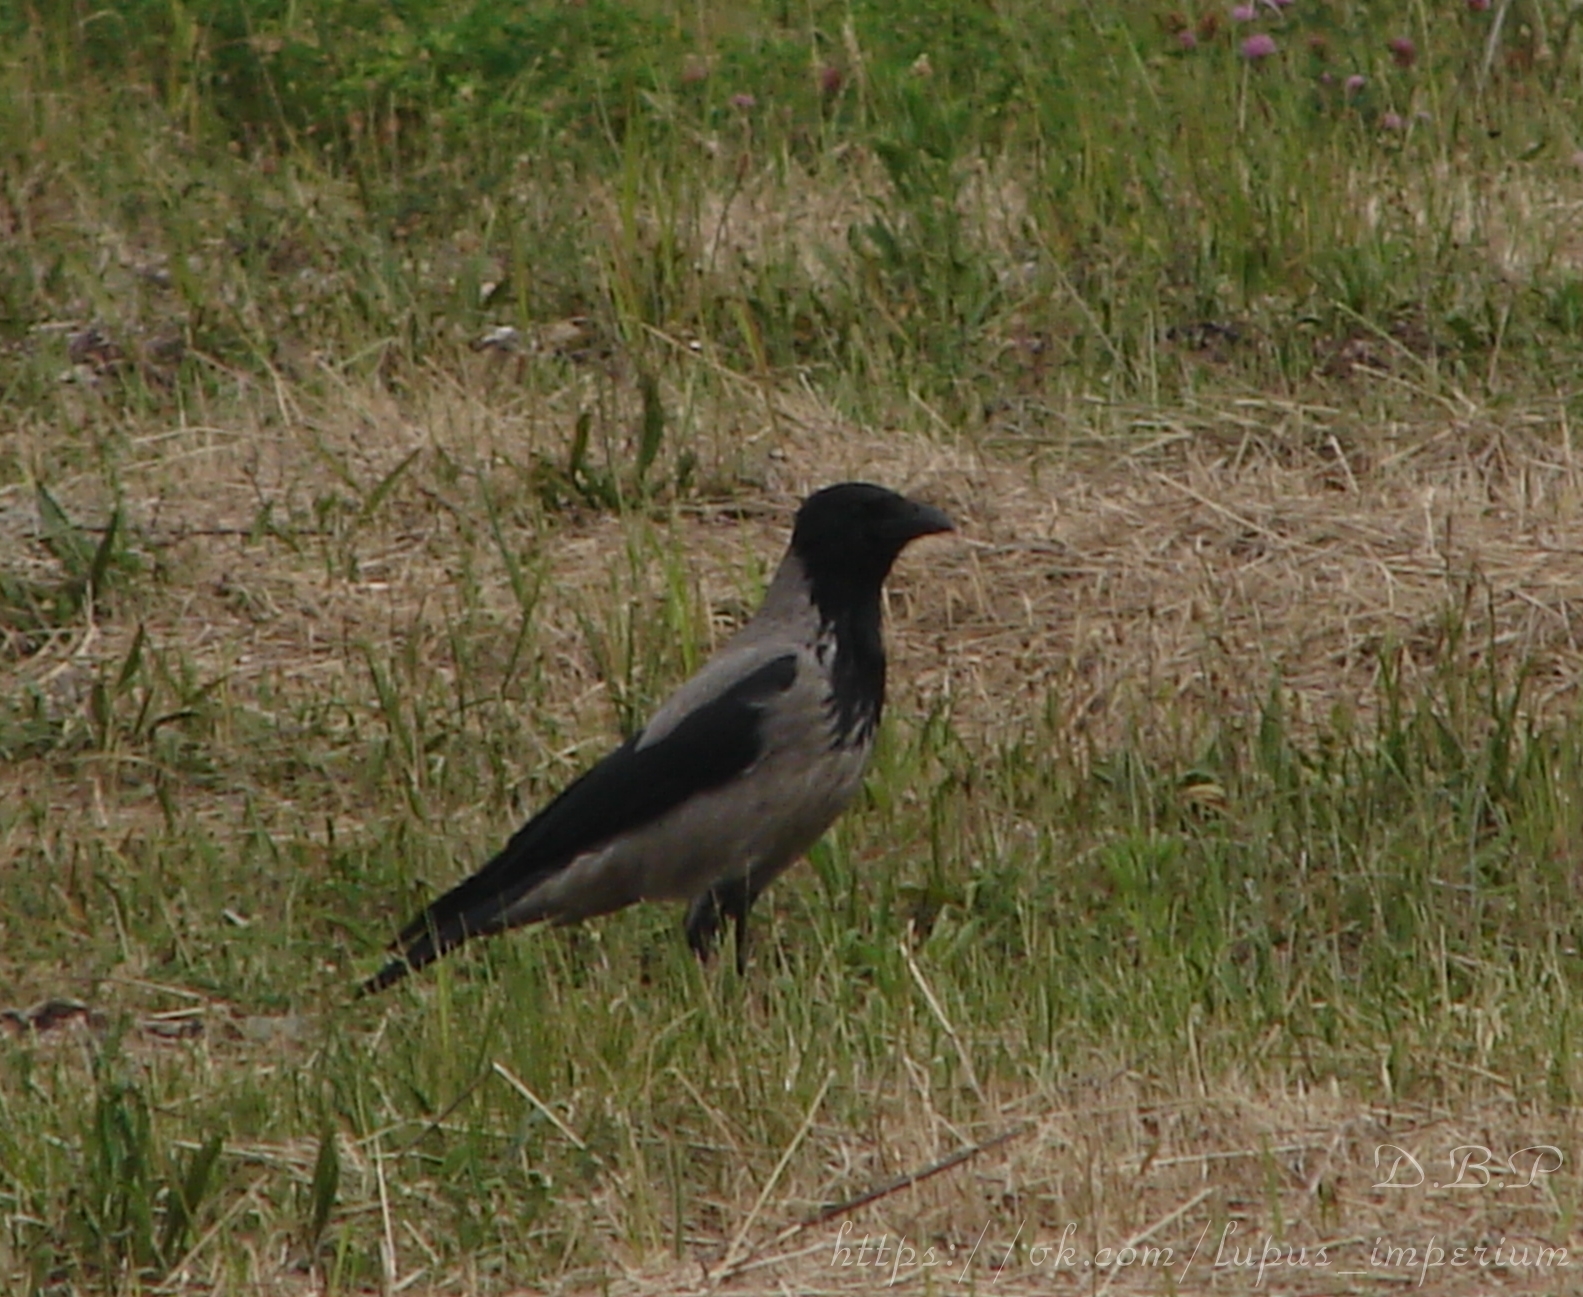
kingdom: Animalia
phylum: Chordata
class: Aves
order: Passeriformes
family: Corvidae
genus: Corvus
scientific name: Corvus cornix
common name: Hooded crow
